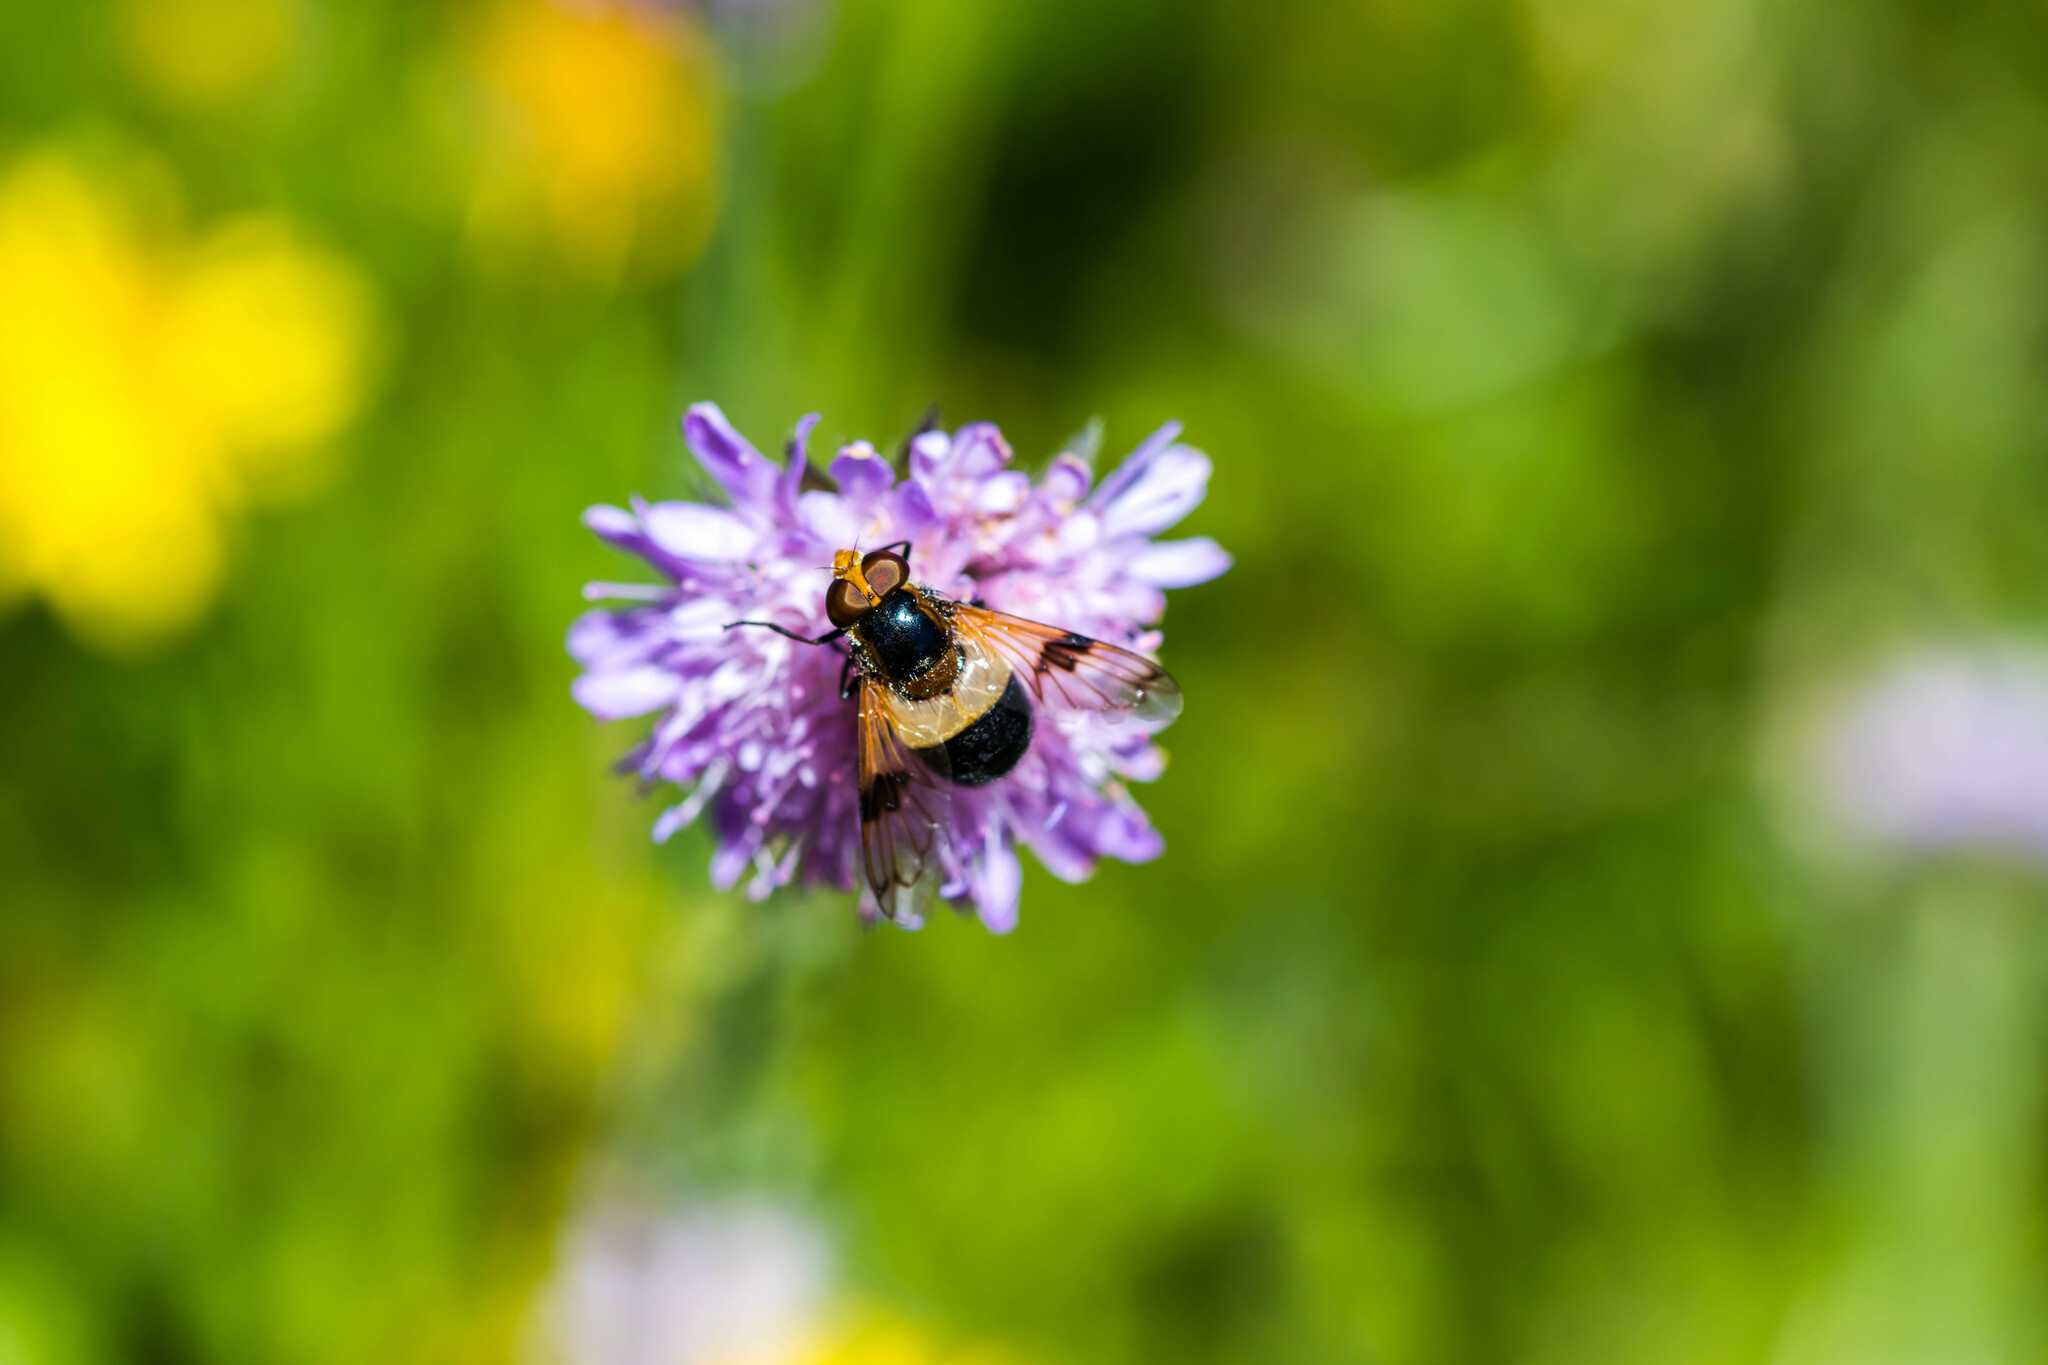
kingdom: Animalia
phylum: Arthropoda
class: Insecta
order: Diptera
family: Syrphidae
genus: Volucella
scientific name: Volucella pellucens
